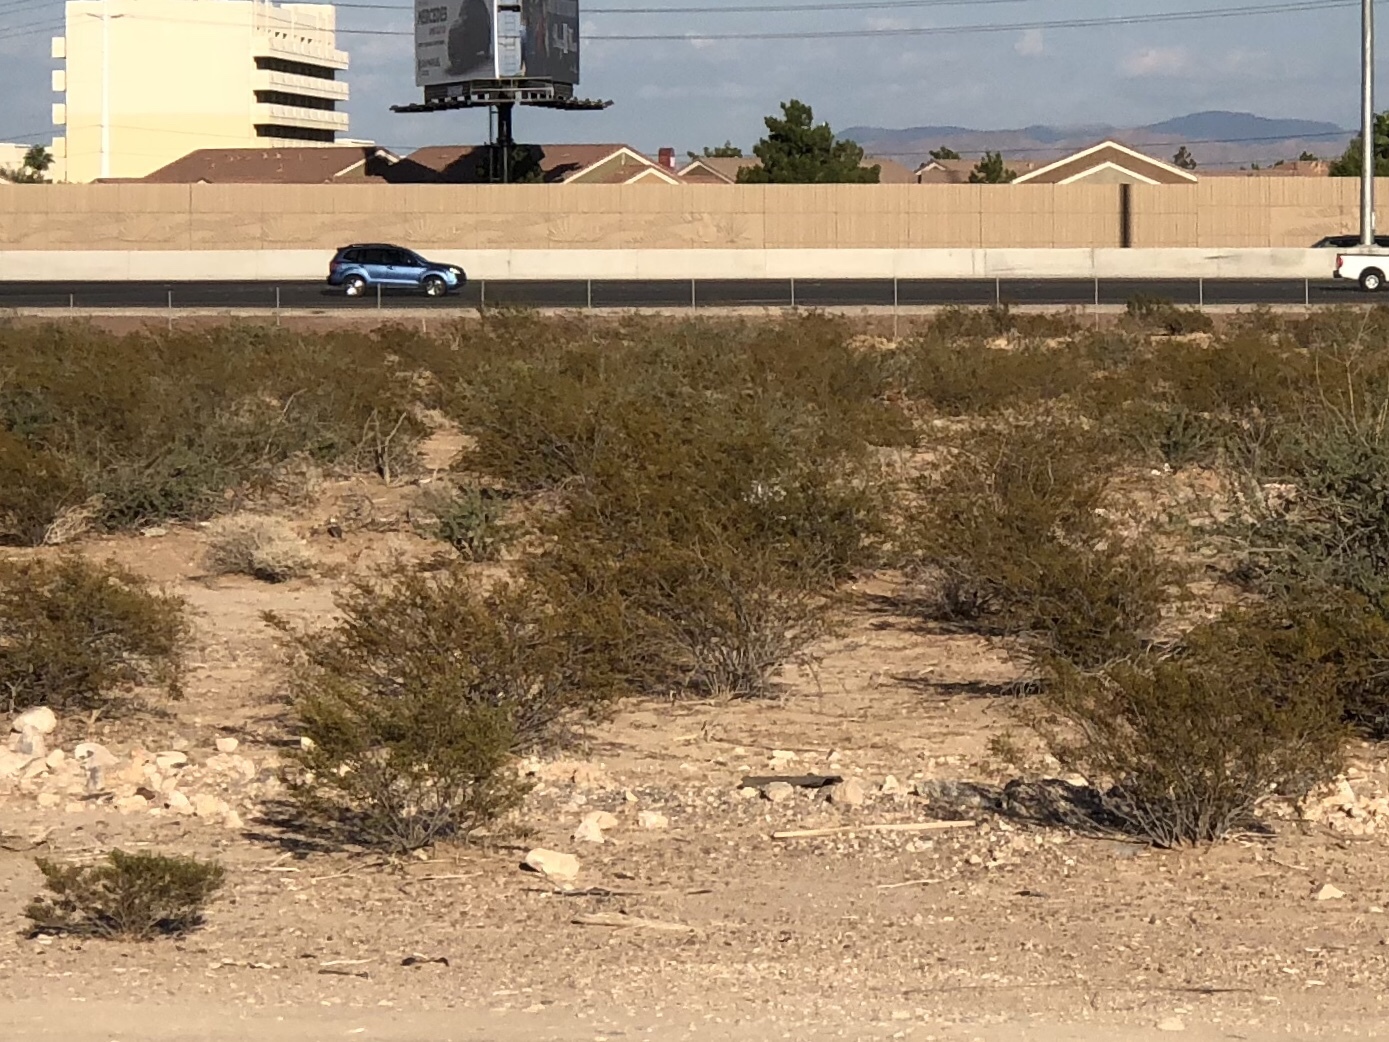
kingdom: Plantae
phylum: Tracheophyta
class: Magnoliopsida
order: Zygophyllales
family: Zygophyllaceae
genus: Larrea
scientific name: Larrea tridentata
